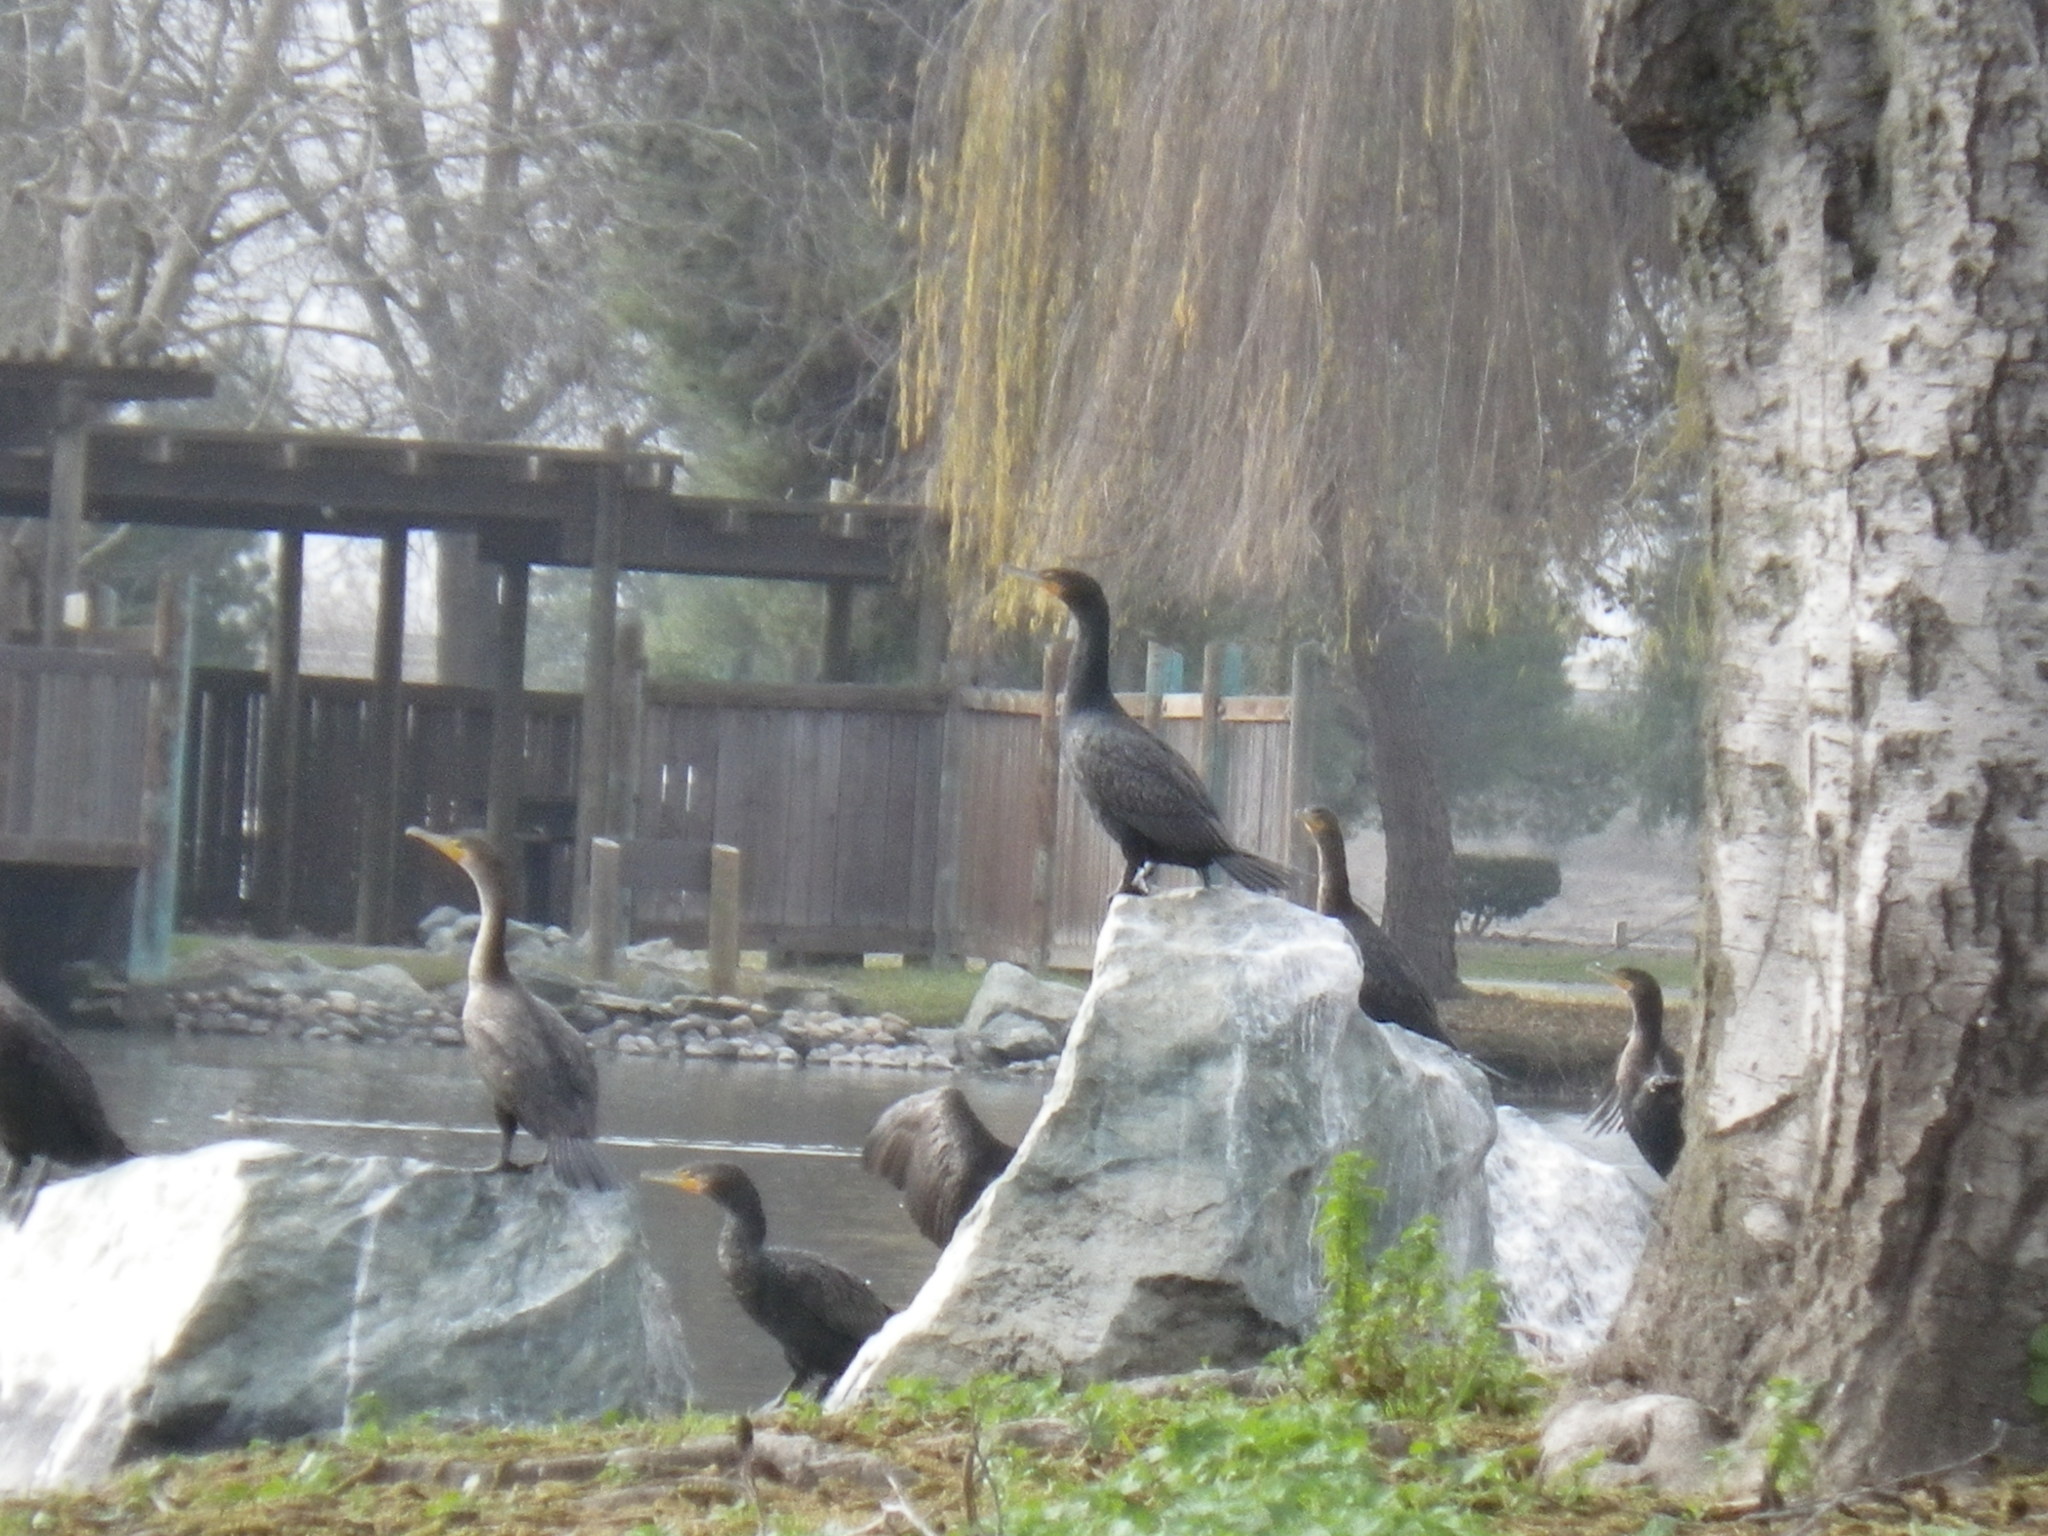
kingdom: Animalia
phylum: Chordata
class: Aves
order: Suliformes
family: Phalacrocoracidae
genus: Phalacrocorax
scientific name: Phalacrocorax auritus
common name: Double-crested cormorant
